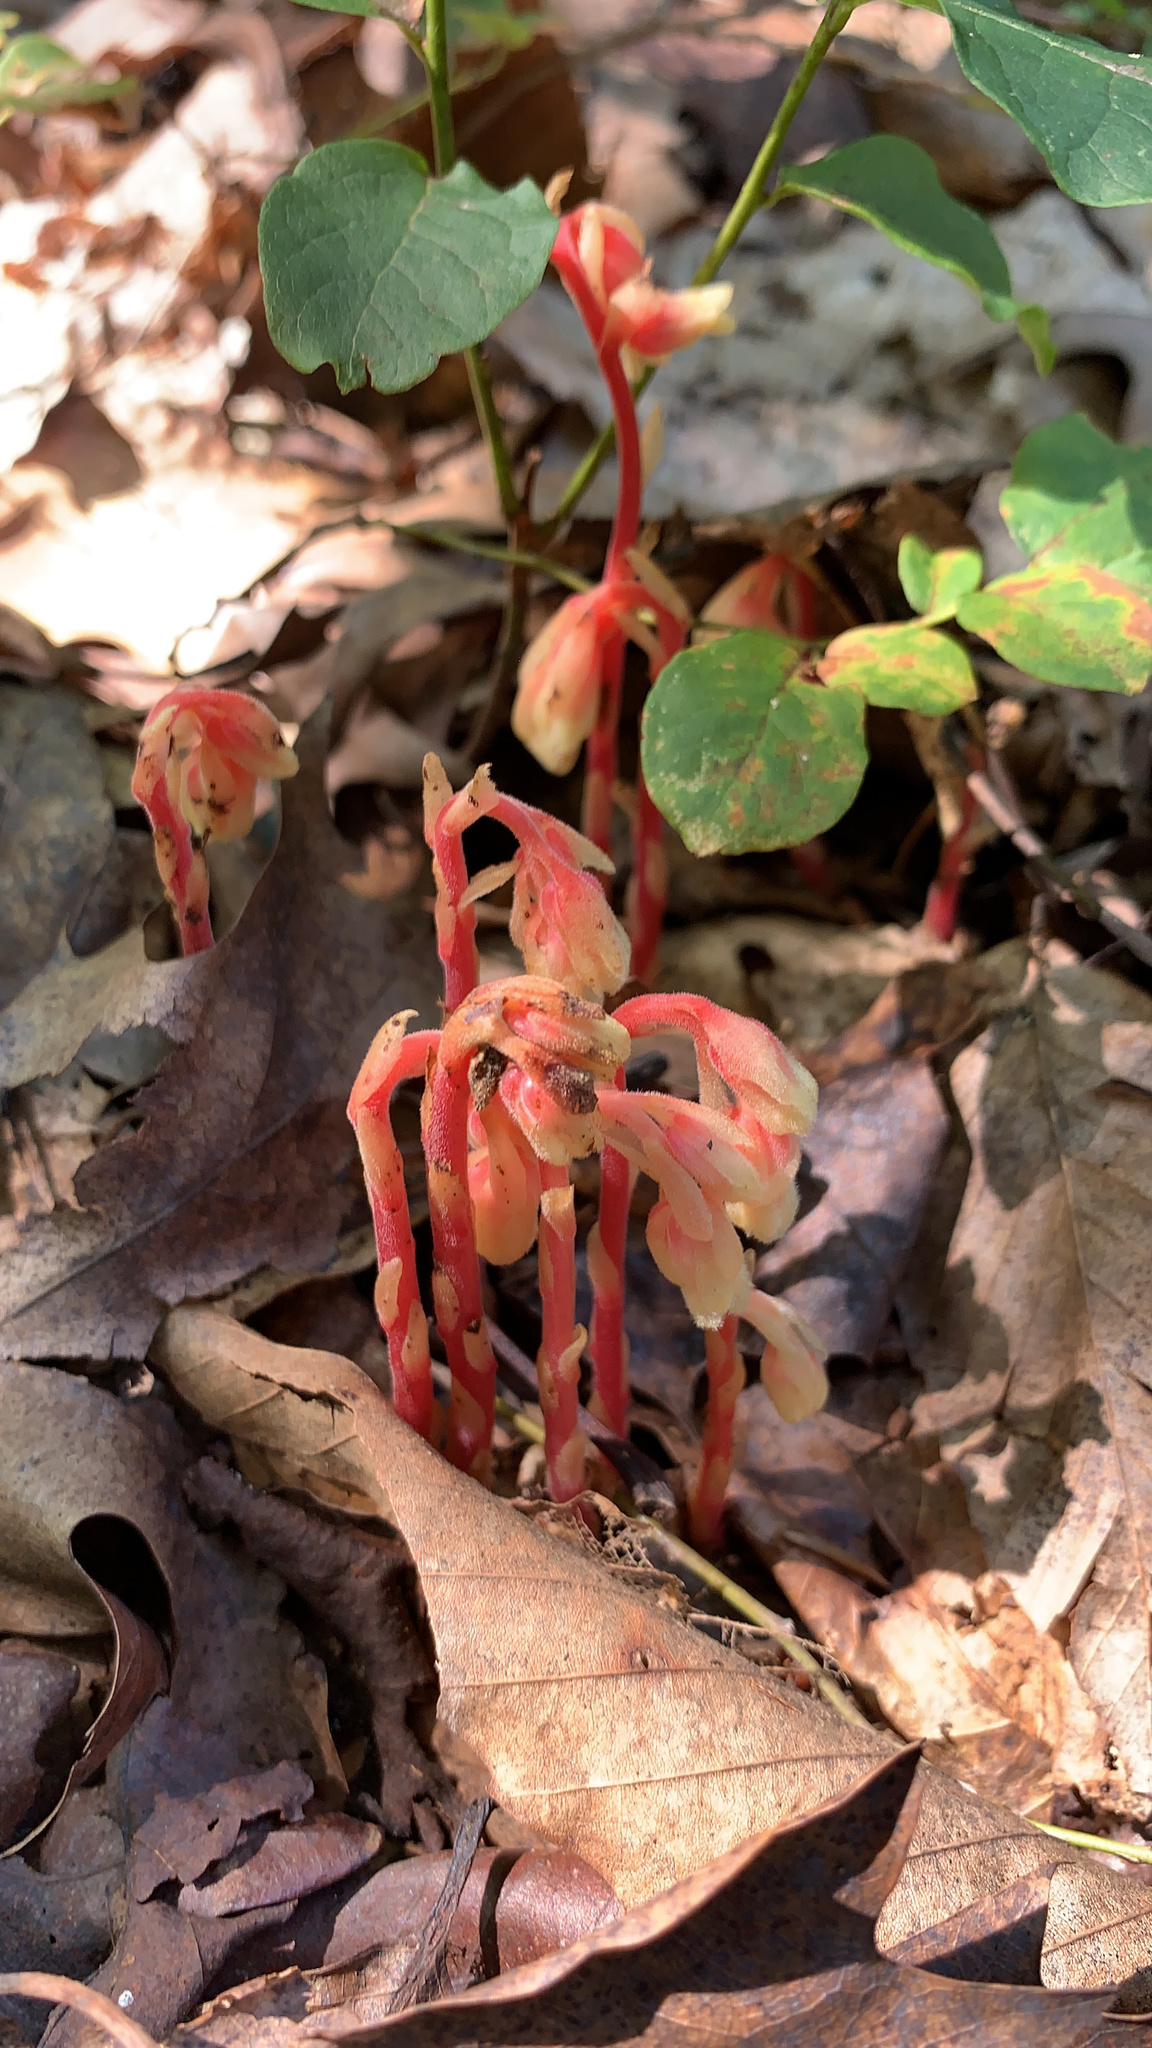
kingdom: Plantae
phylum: Tracheophyta
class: Magnoliopsida
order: Ericales
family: Ericaceae
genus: Hypopitys
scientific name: Hypopitys monotropa
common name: Yellow bird's-nest
